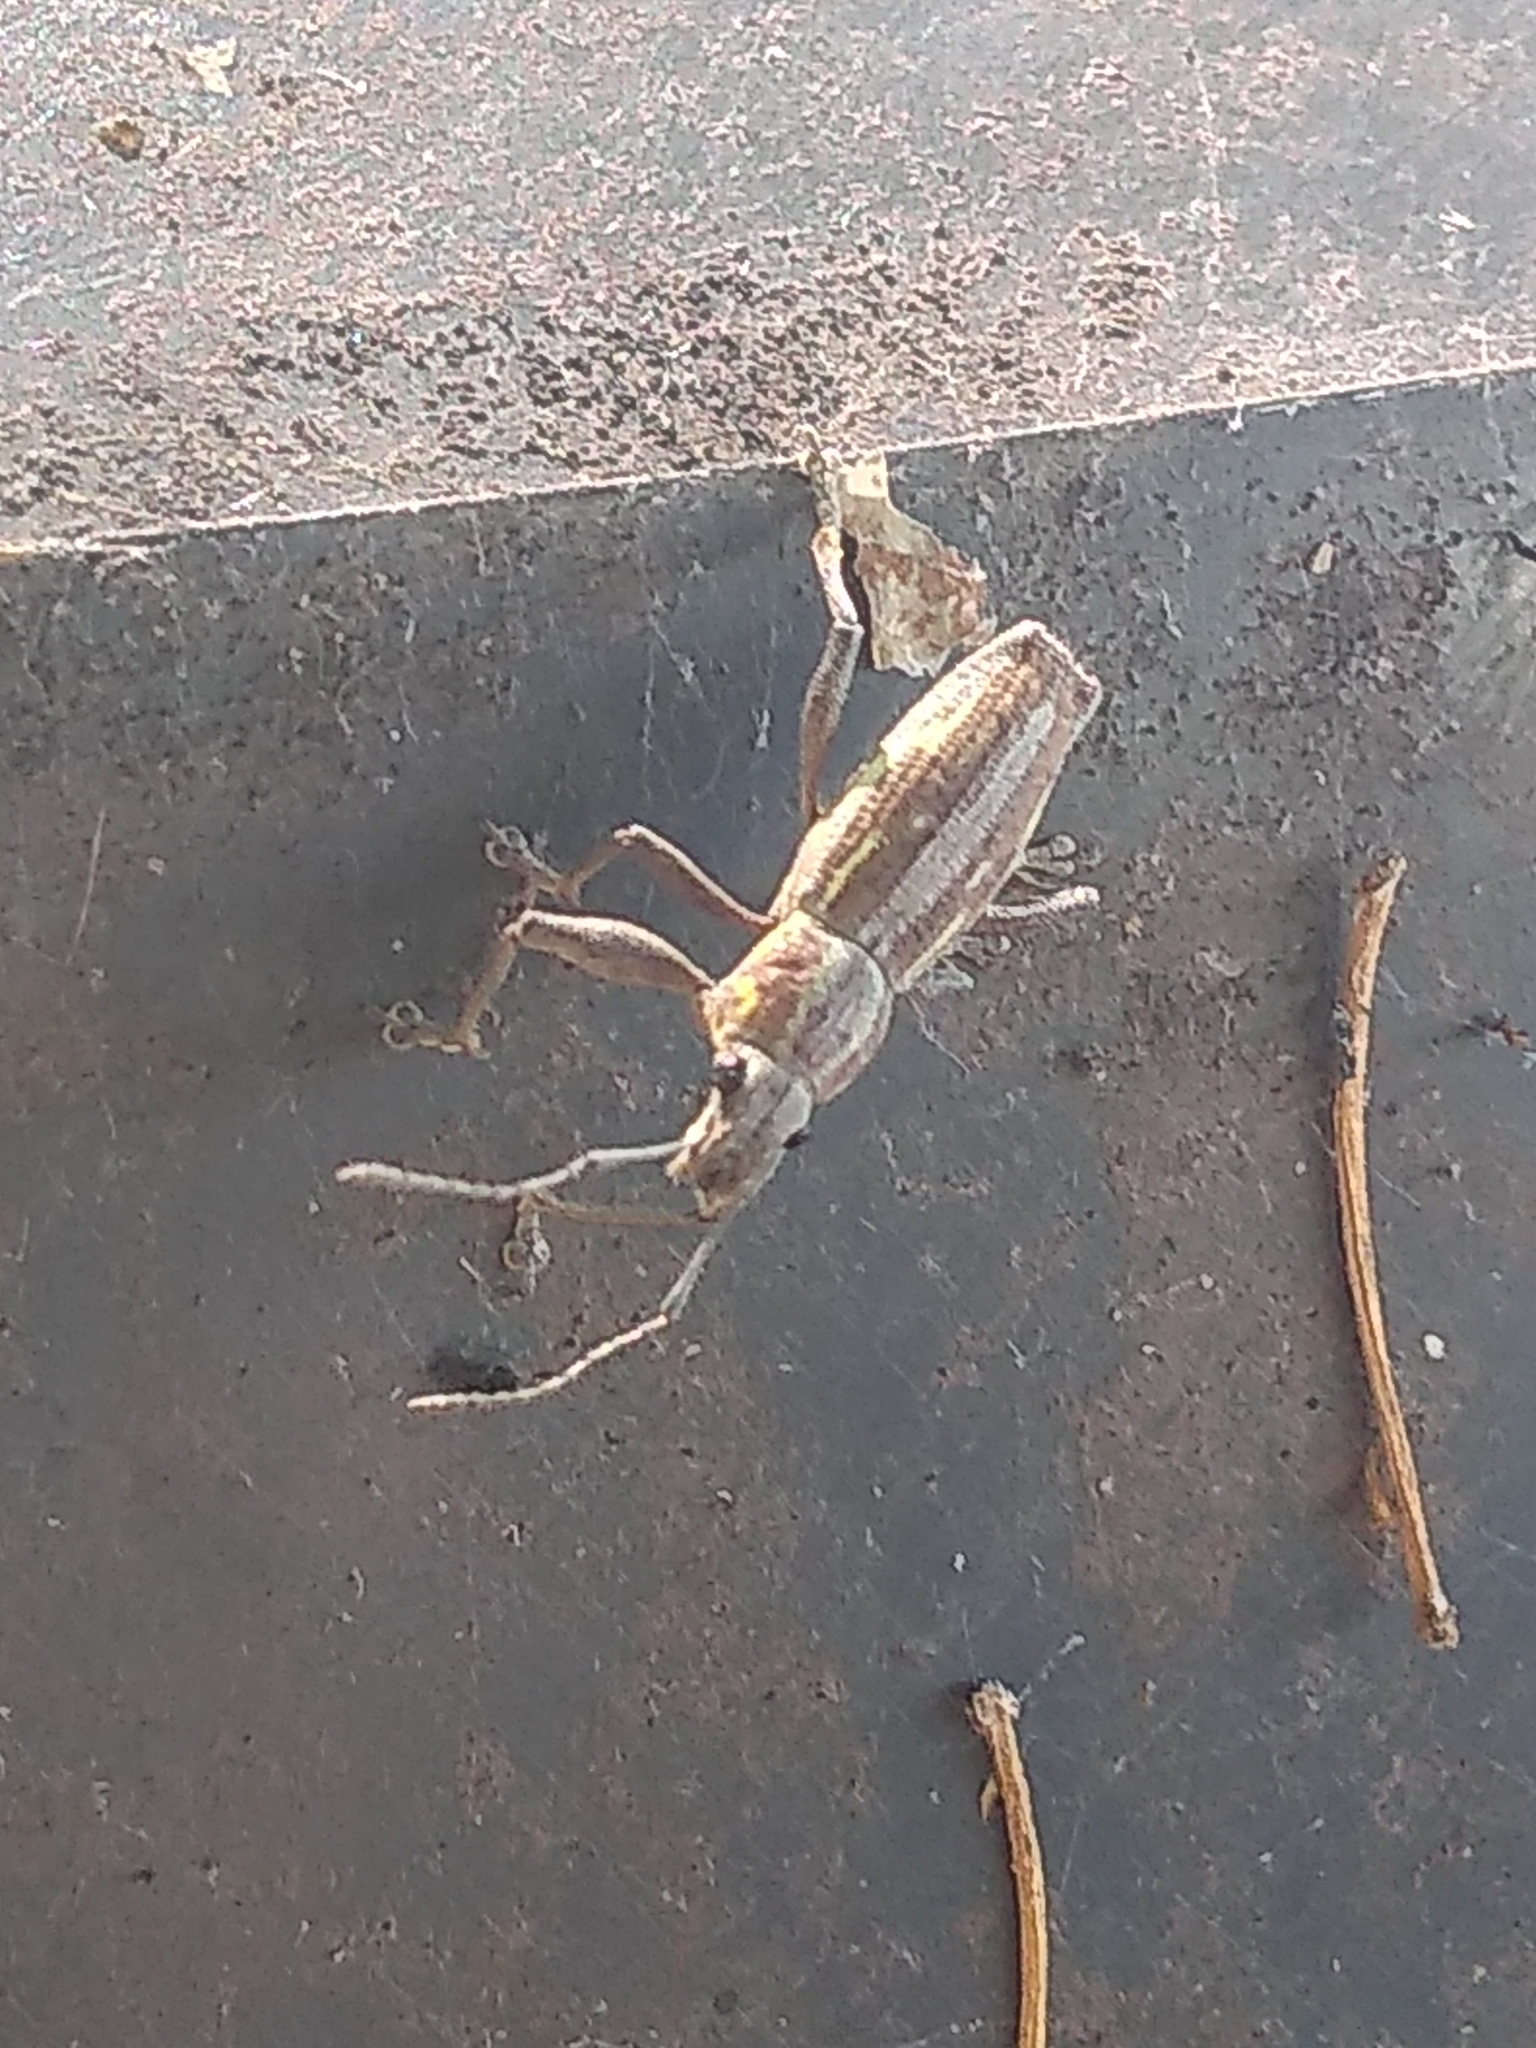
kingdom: Animalia
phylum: Arthropoda
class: Insecta
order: Coleoptera
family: Curculionidae
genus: Naupactus
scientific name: Naupactus xanthographus
